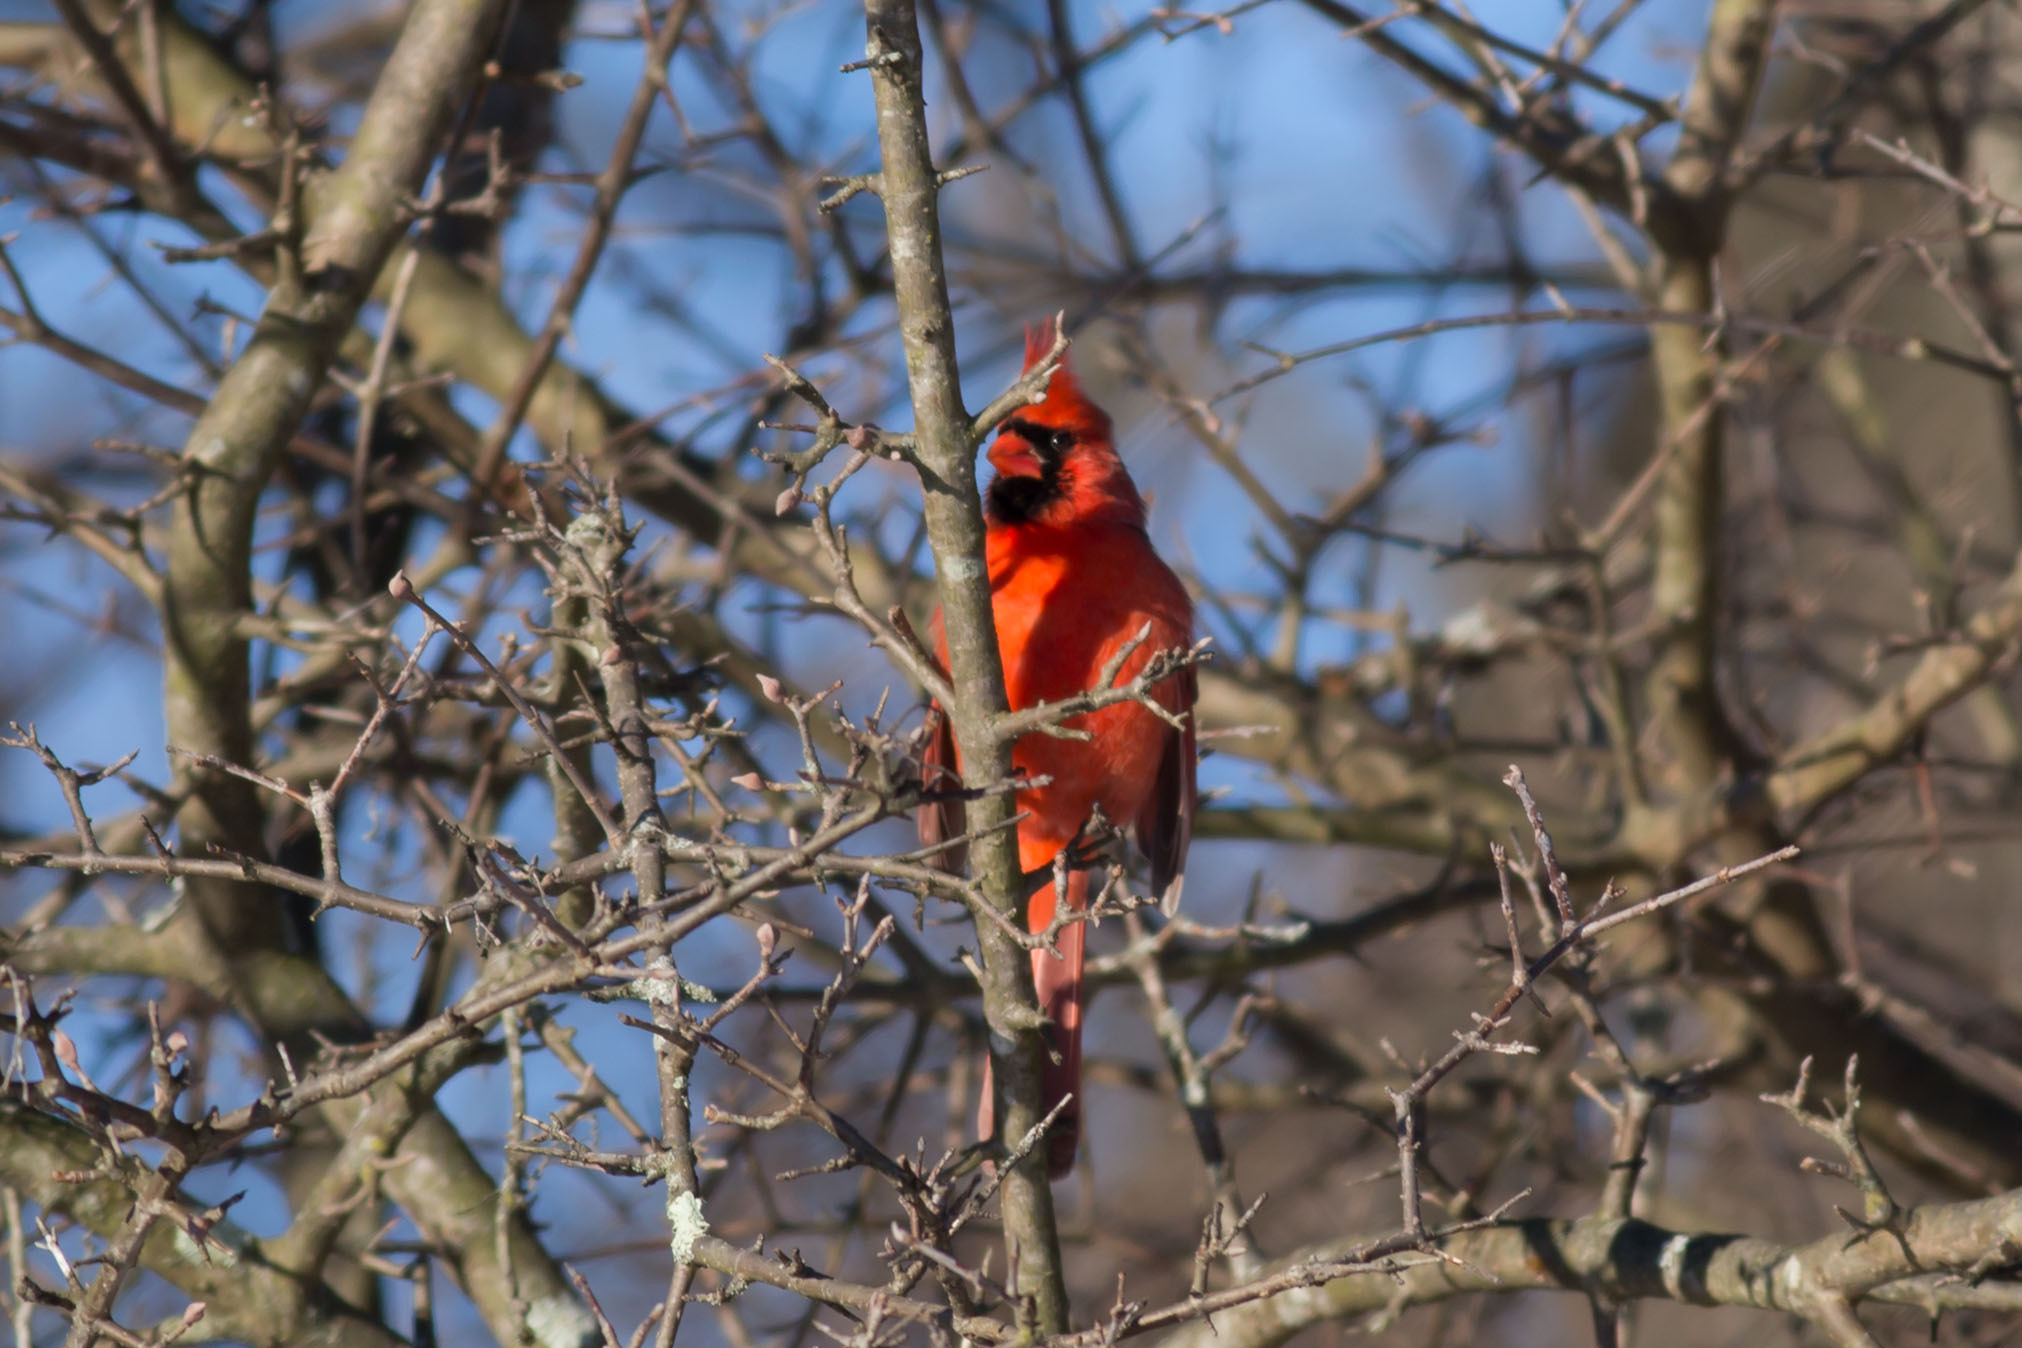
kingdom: Animalia
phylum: Chordata
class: Aves
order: Passeriformes
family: Cardinalidae
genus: Cardinalis
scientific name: Cardinalis cardinalis
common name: Northern cardinal
